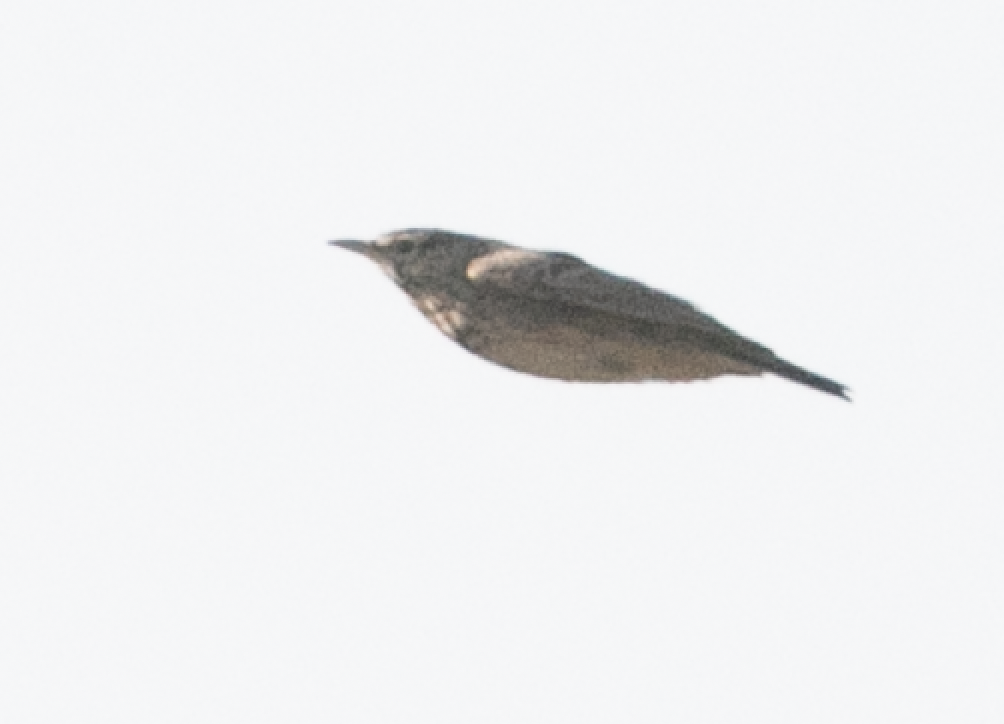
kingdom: Animalia
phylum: Chordata
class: Aves
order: Passeriformes
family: Alaudidae
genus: Galerida
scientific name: Galerida cristata
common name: Crested lark
